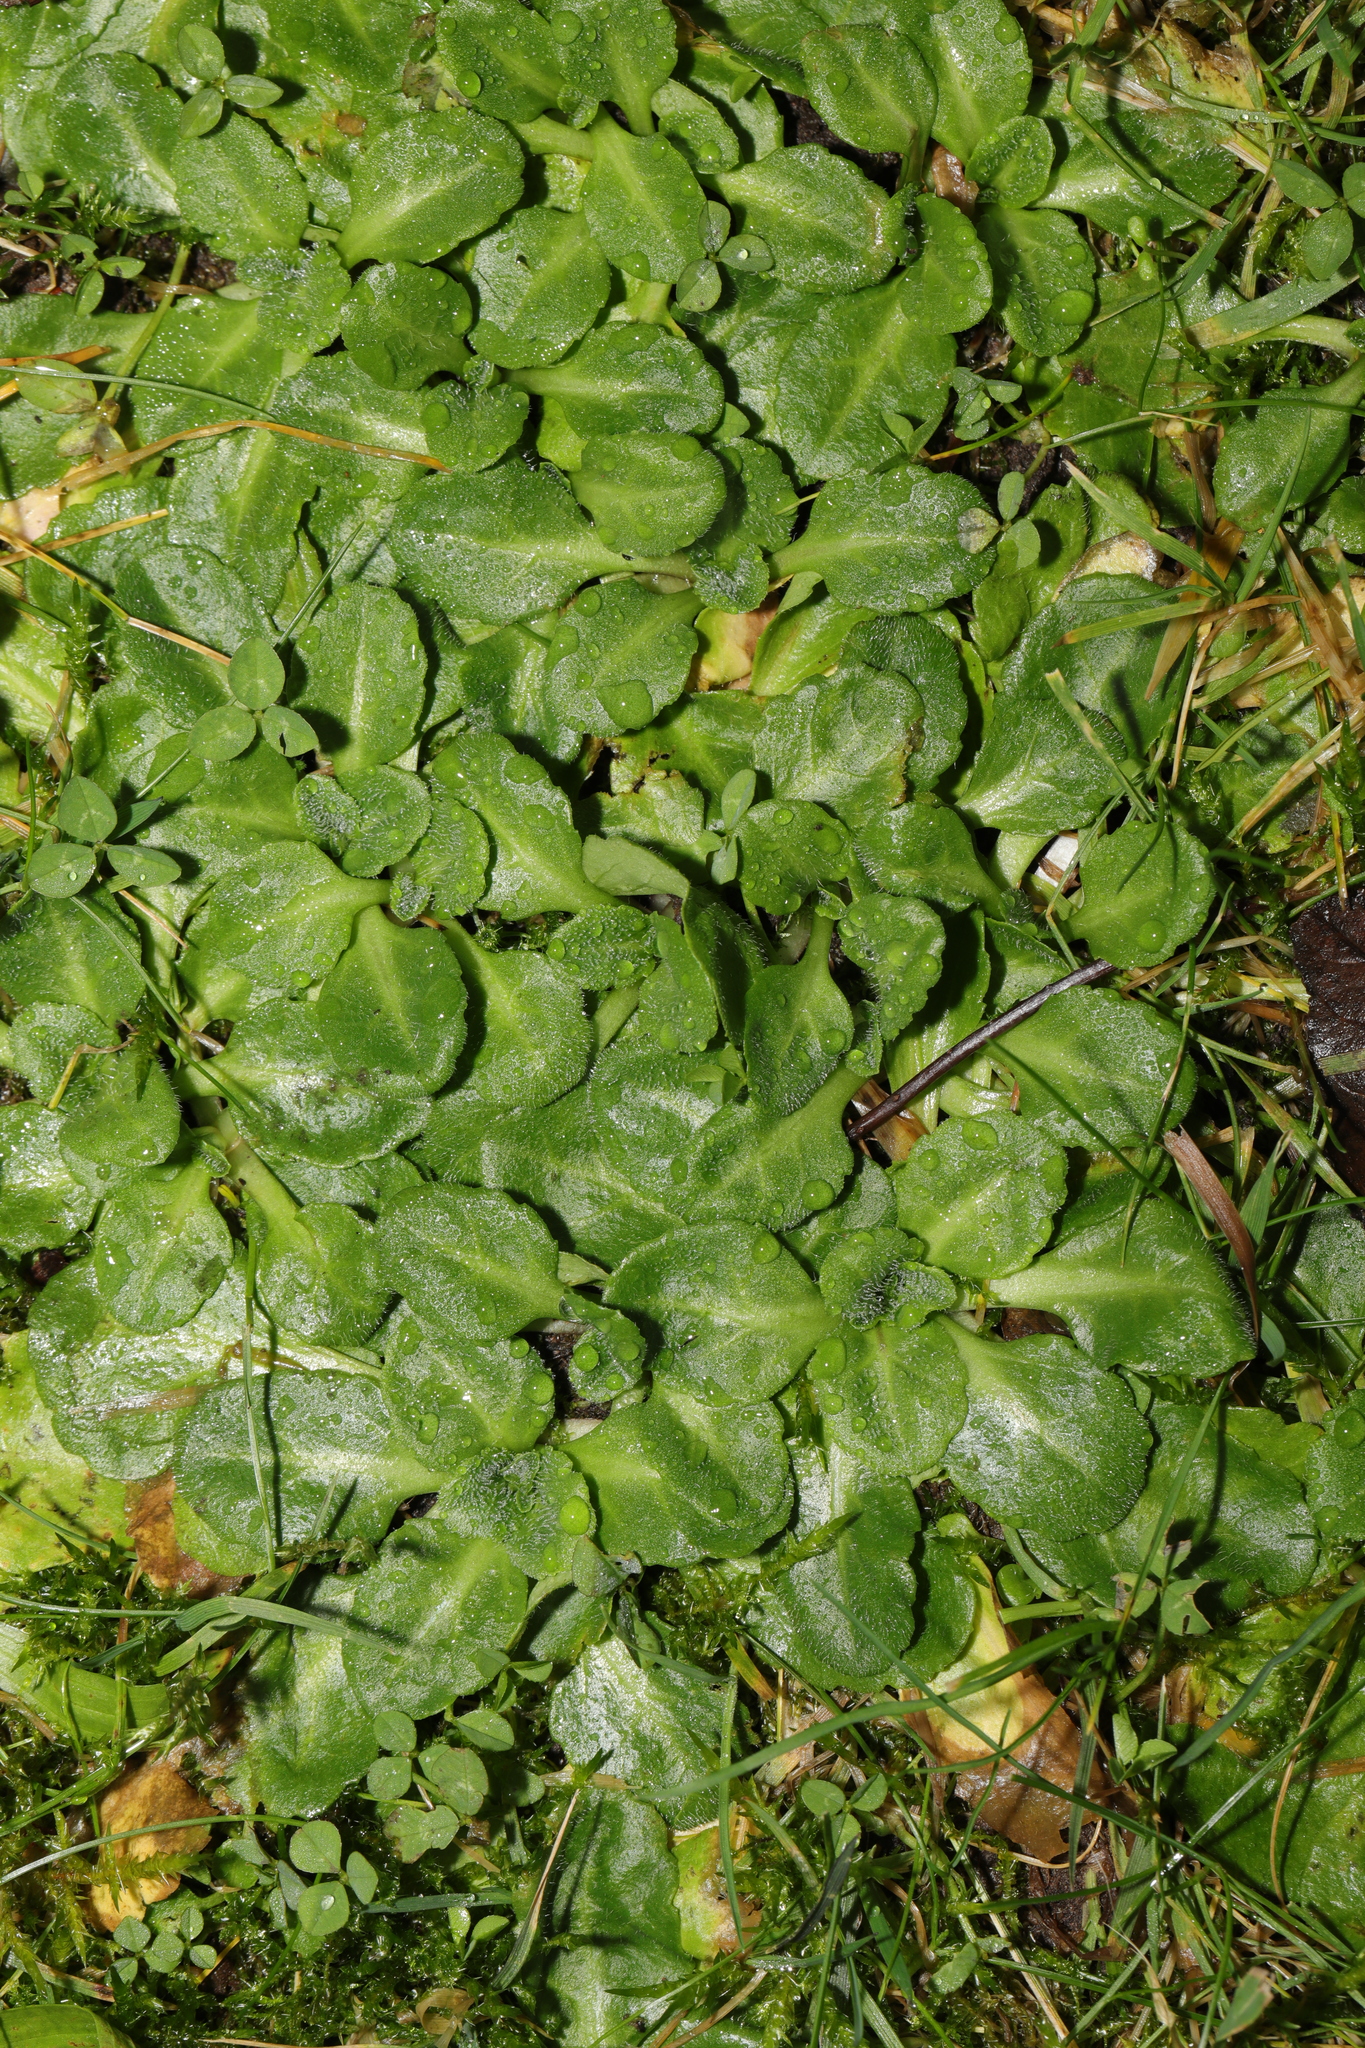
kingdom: Plantae
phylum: Tracheophyta
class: Magnoliopsida
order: Asterales
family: Asteraceae
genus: Bellis
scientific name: Bellis perennis
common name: Lawndaisy
